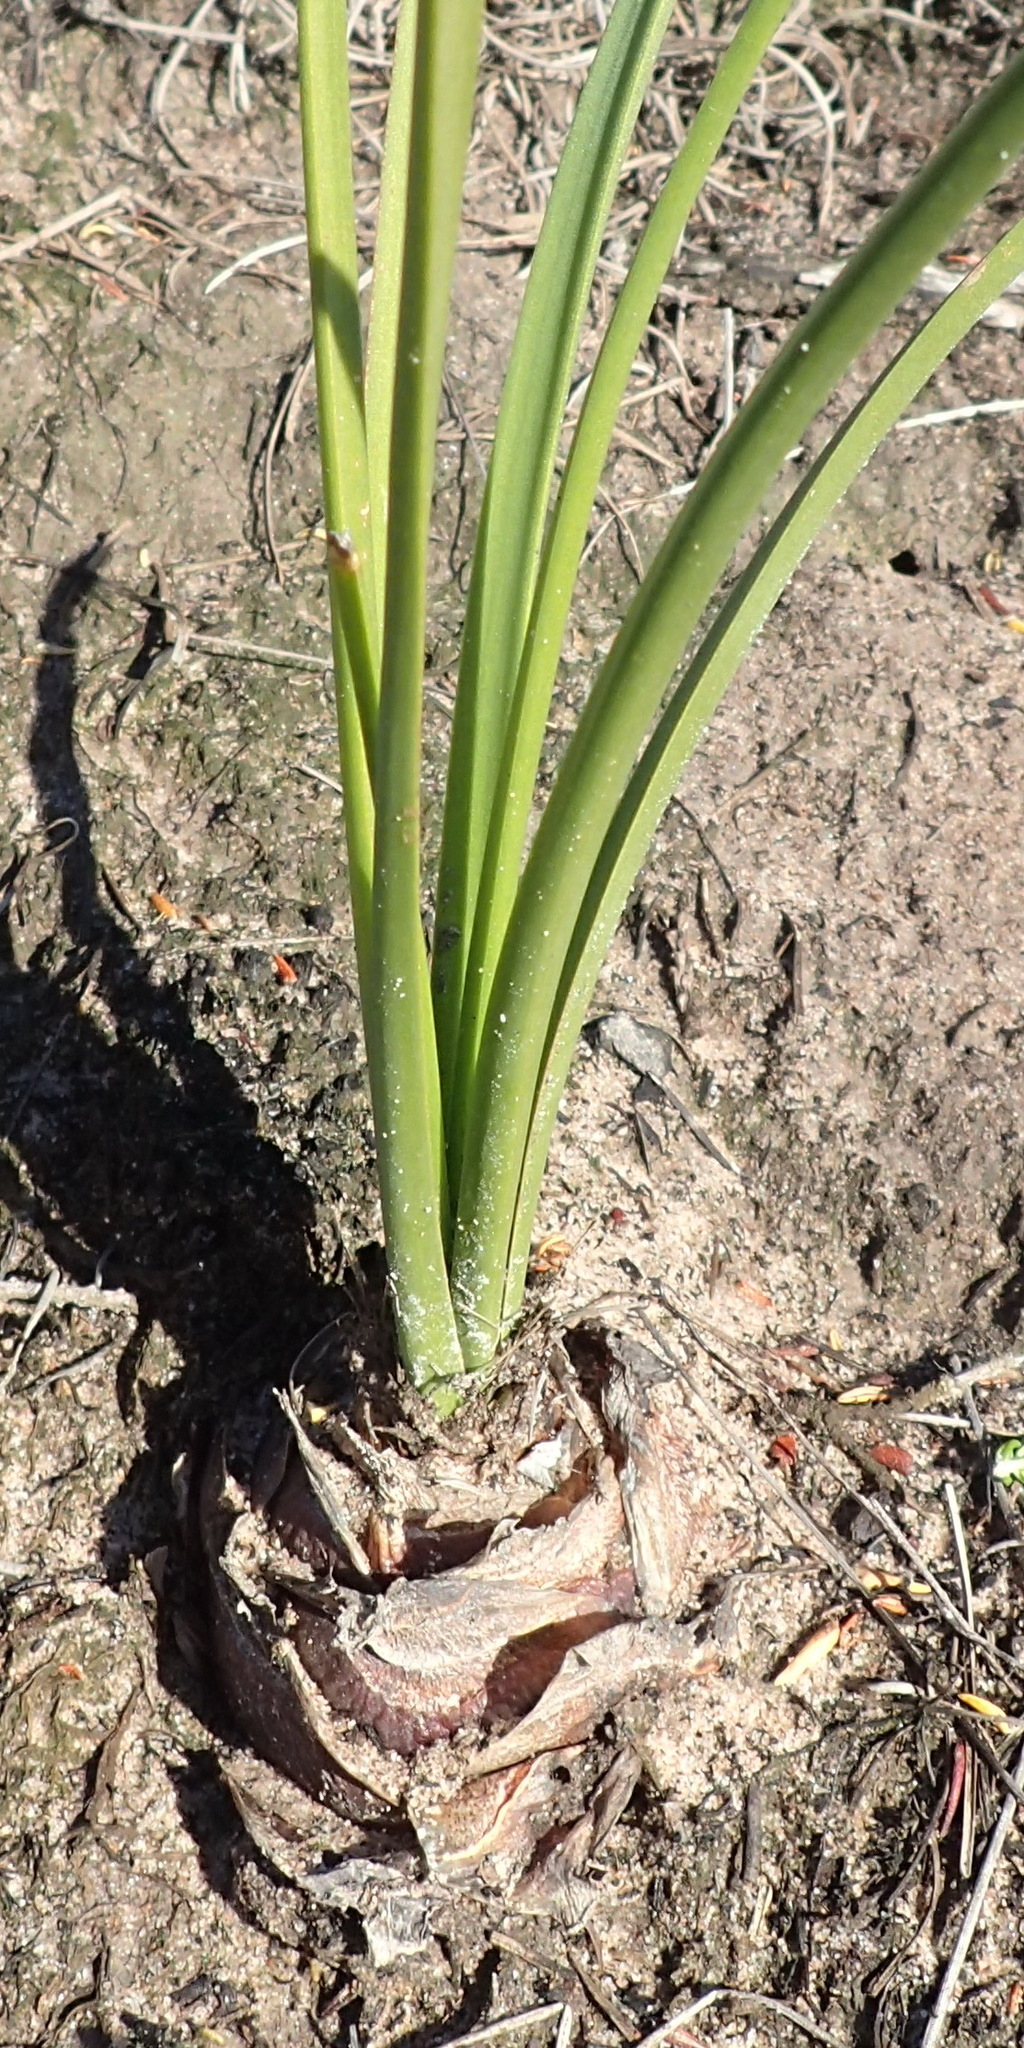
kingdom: Plantae
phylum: Tracheophyta
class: Liliopsida
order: Asparagales
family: Asparagaceae
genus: Drimia
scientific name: Drimia exuviata
